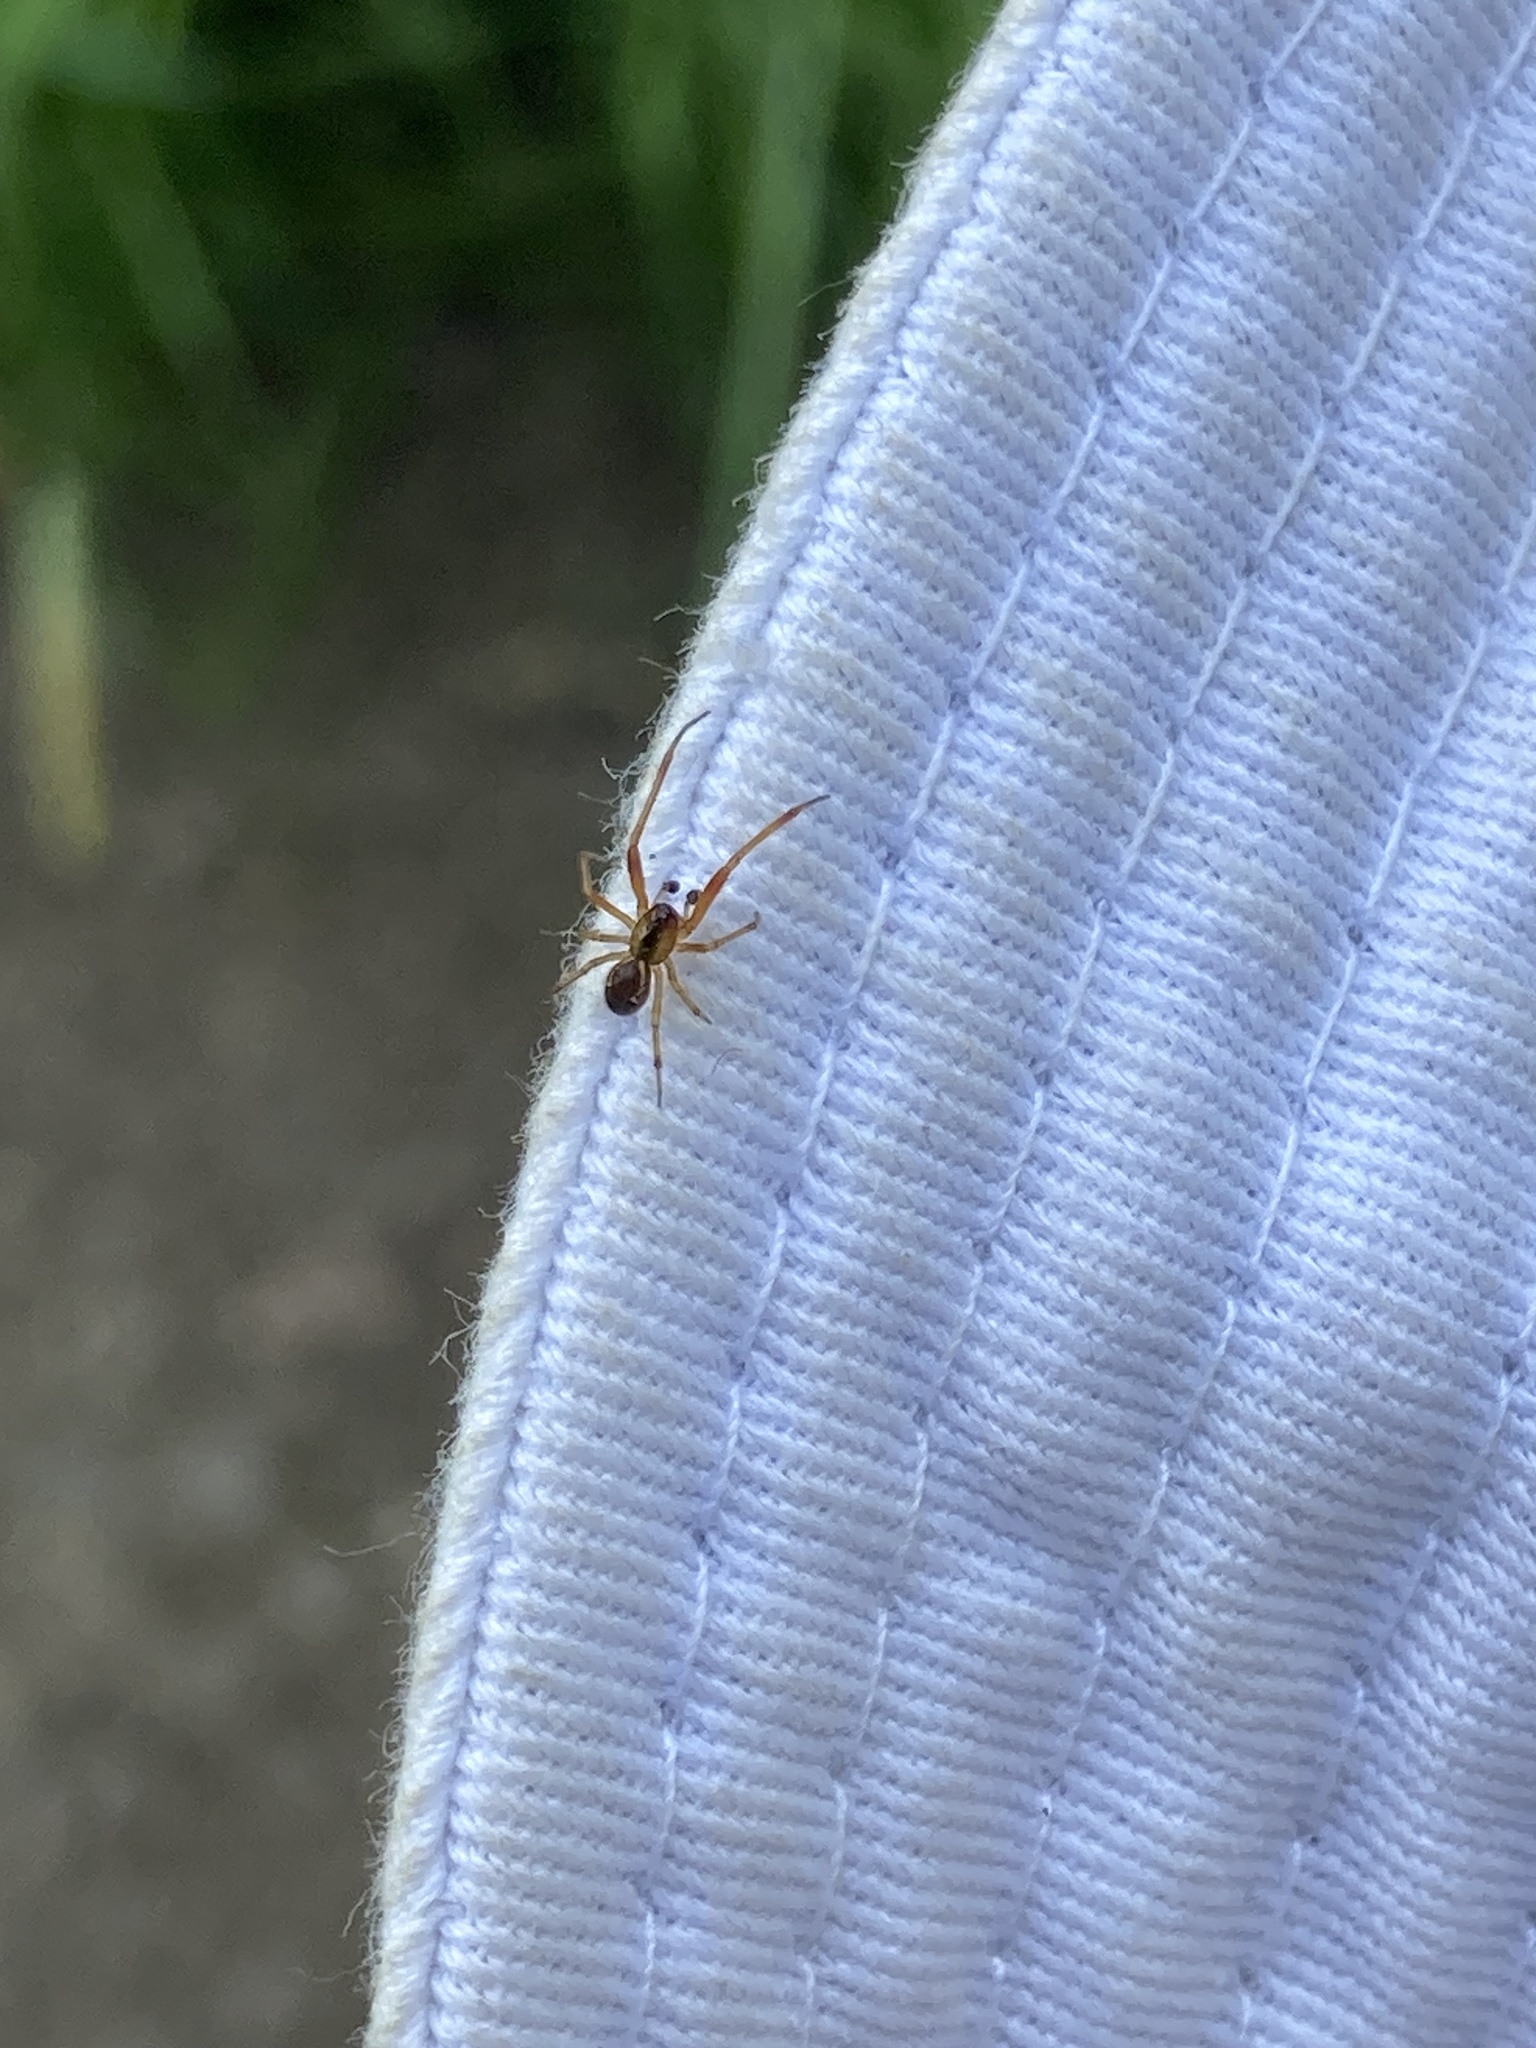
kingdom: Animalia
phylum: Arthropoda
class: Arachnida
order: Araneae
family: Theridiidae
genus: Anelosimus
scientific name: Anelosimus vittatus
